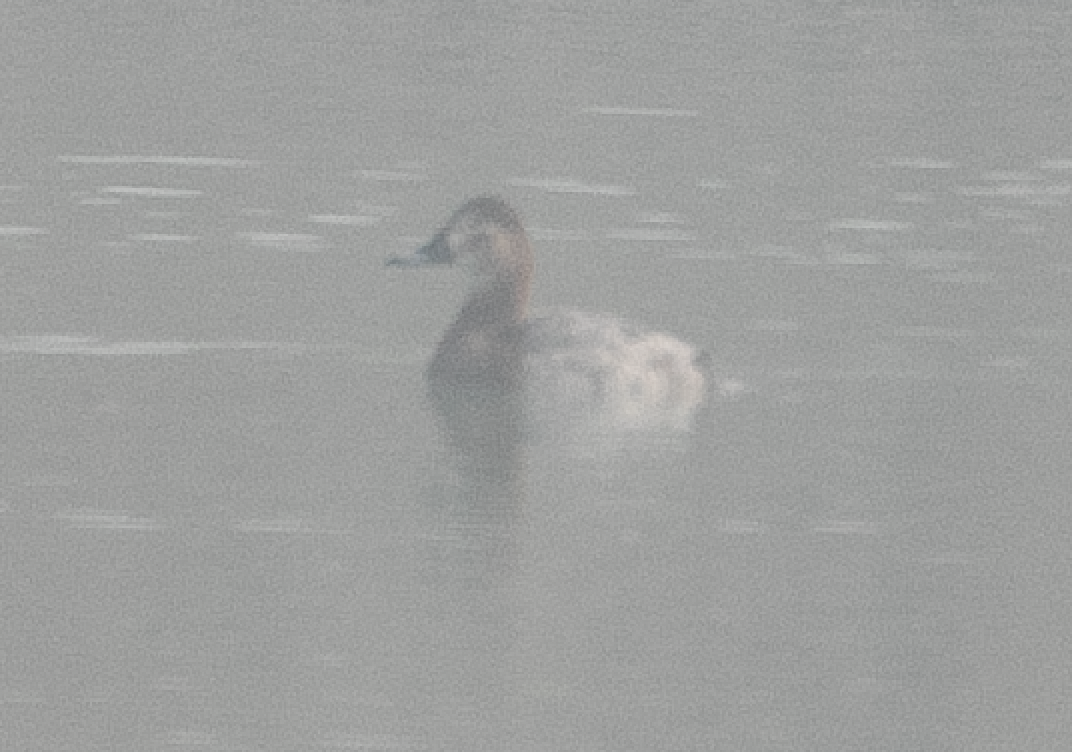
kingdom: Animalia
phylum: Chordata
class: Aves
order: Anseriformes
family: Anatidae
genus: Aythya
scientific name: Aythya ferina
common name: Common pochard
